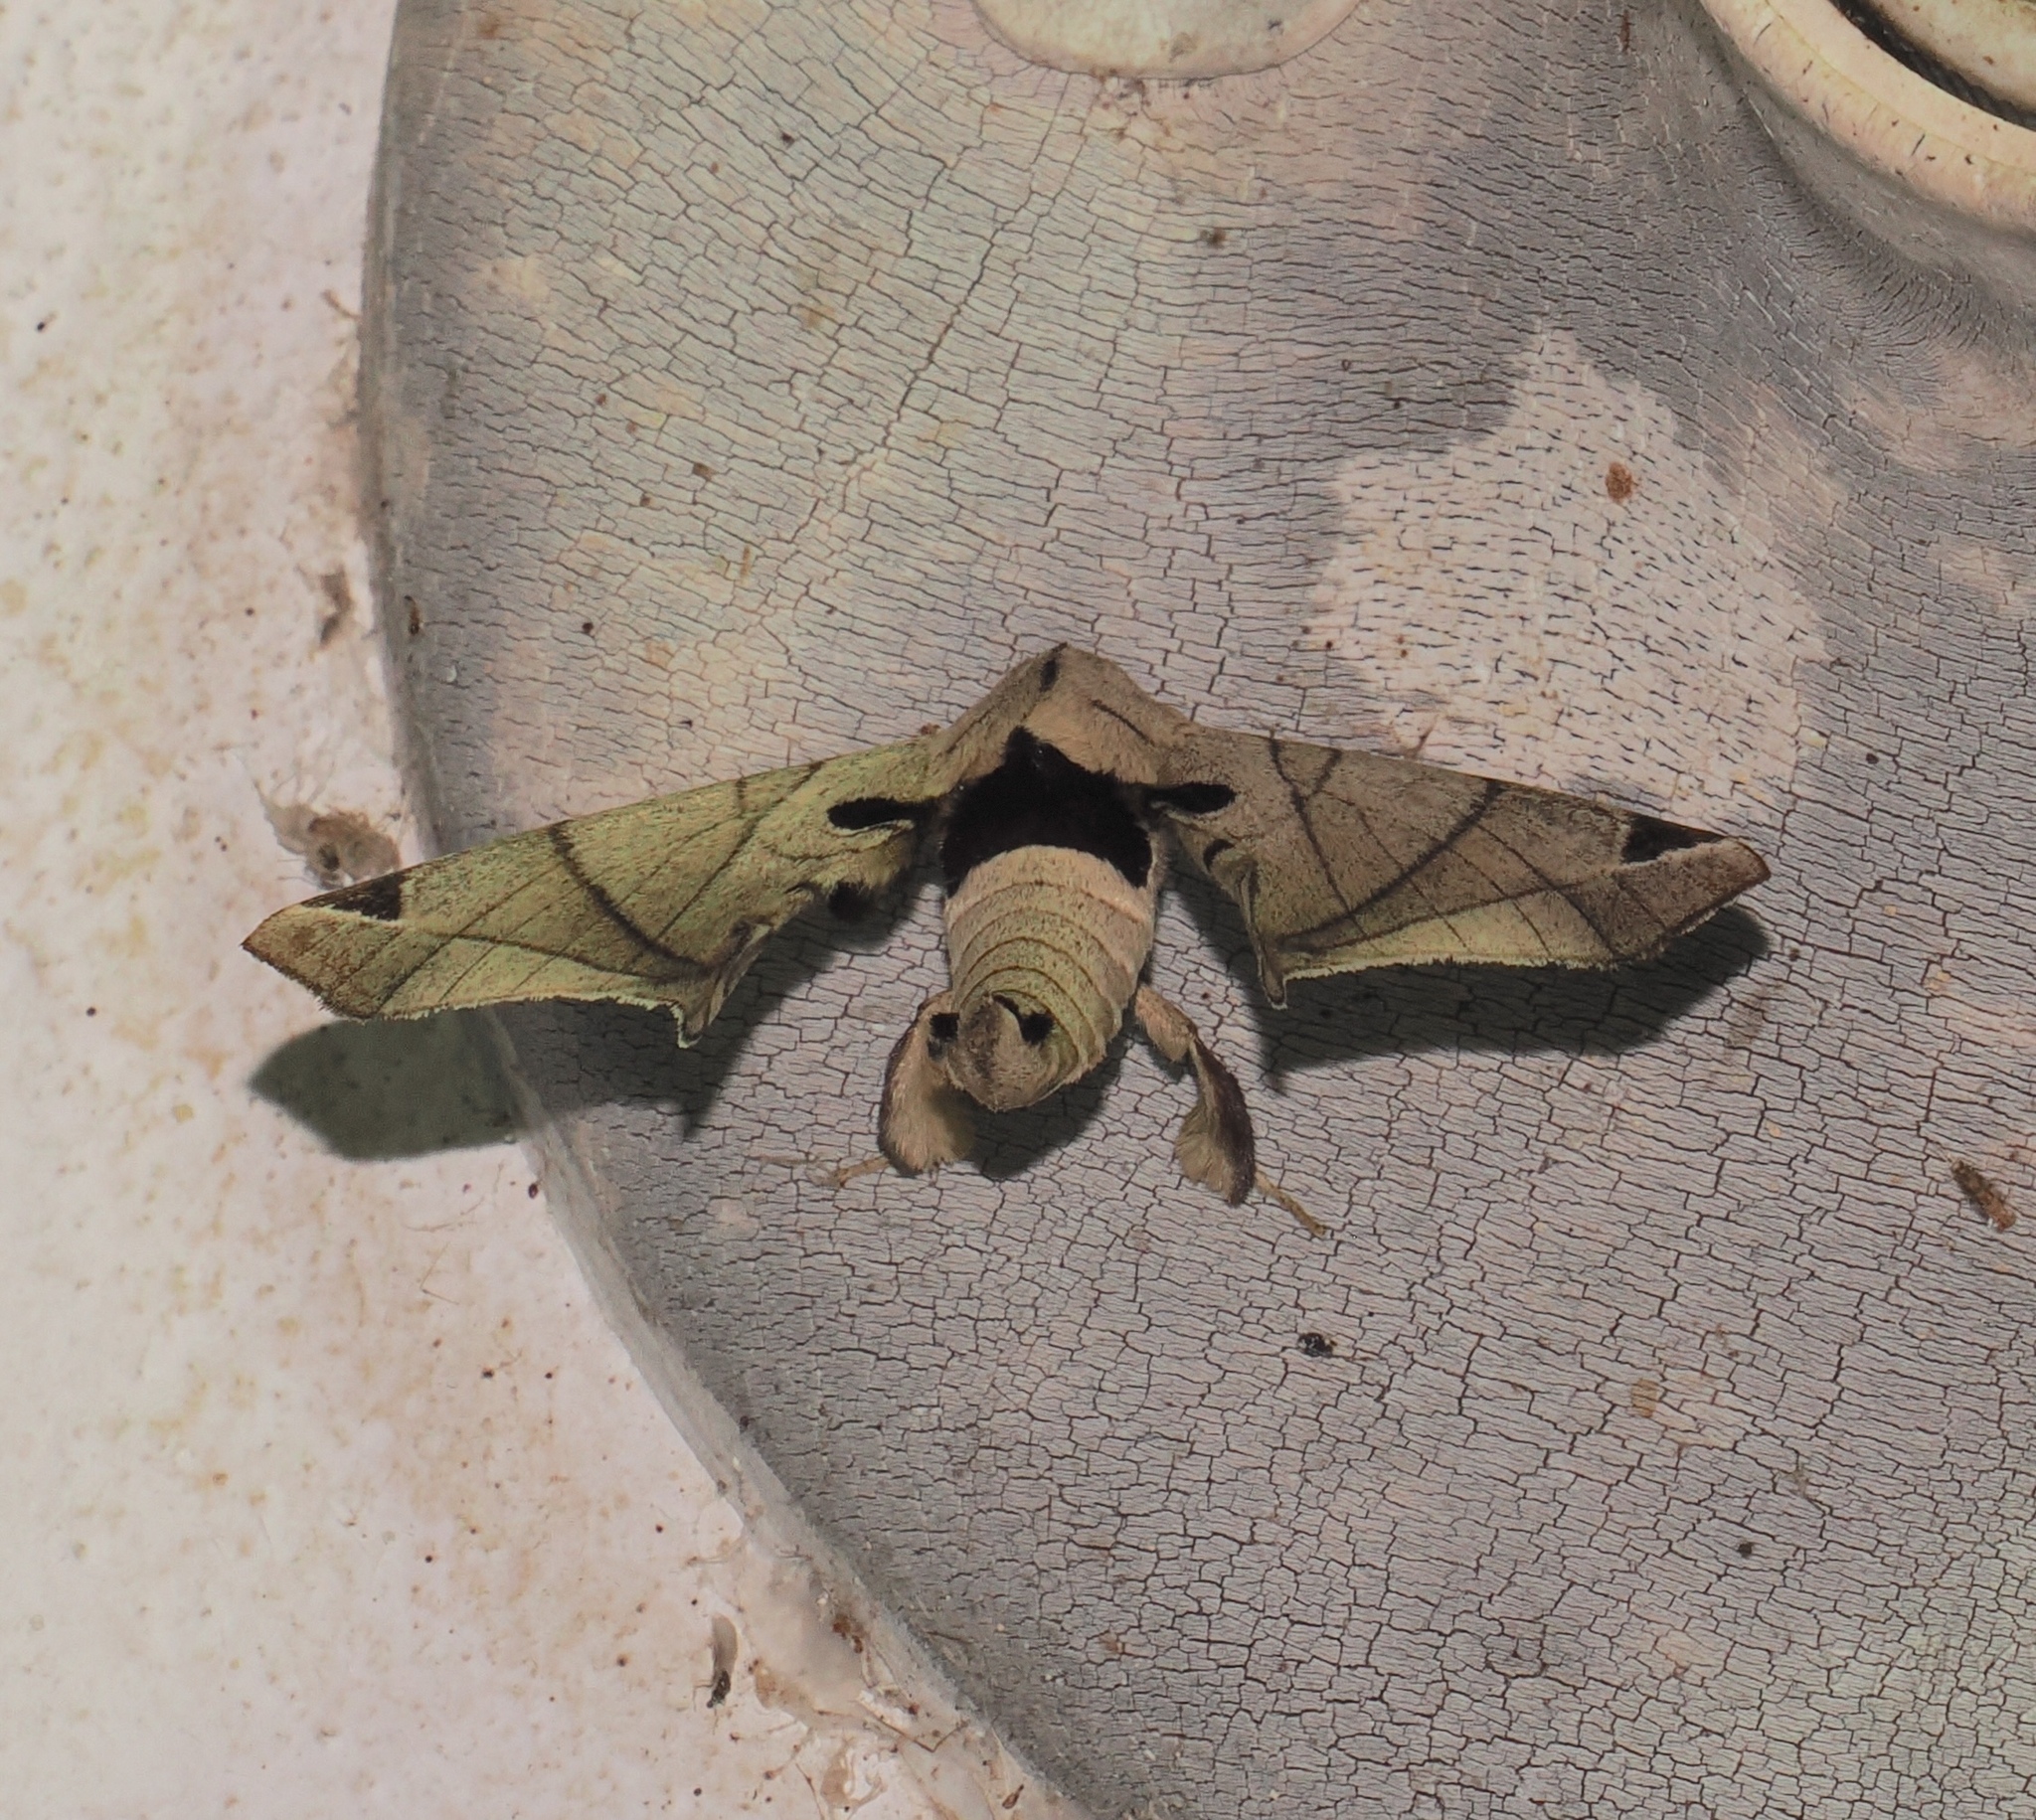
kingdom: Animalia
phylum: Arthropoda
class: Insecta
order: Lepidoptera
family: Apatelodidae
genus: Hygrochroa
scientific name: Hygrochroa Apatelodes pandara
